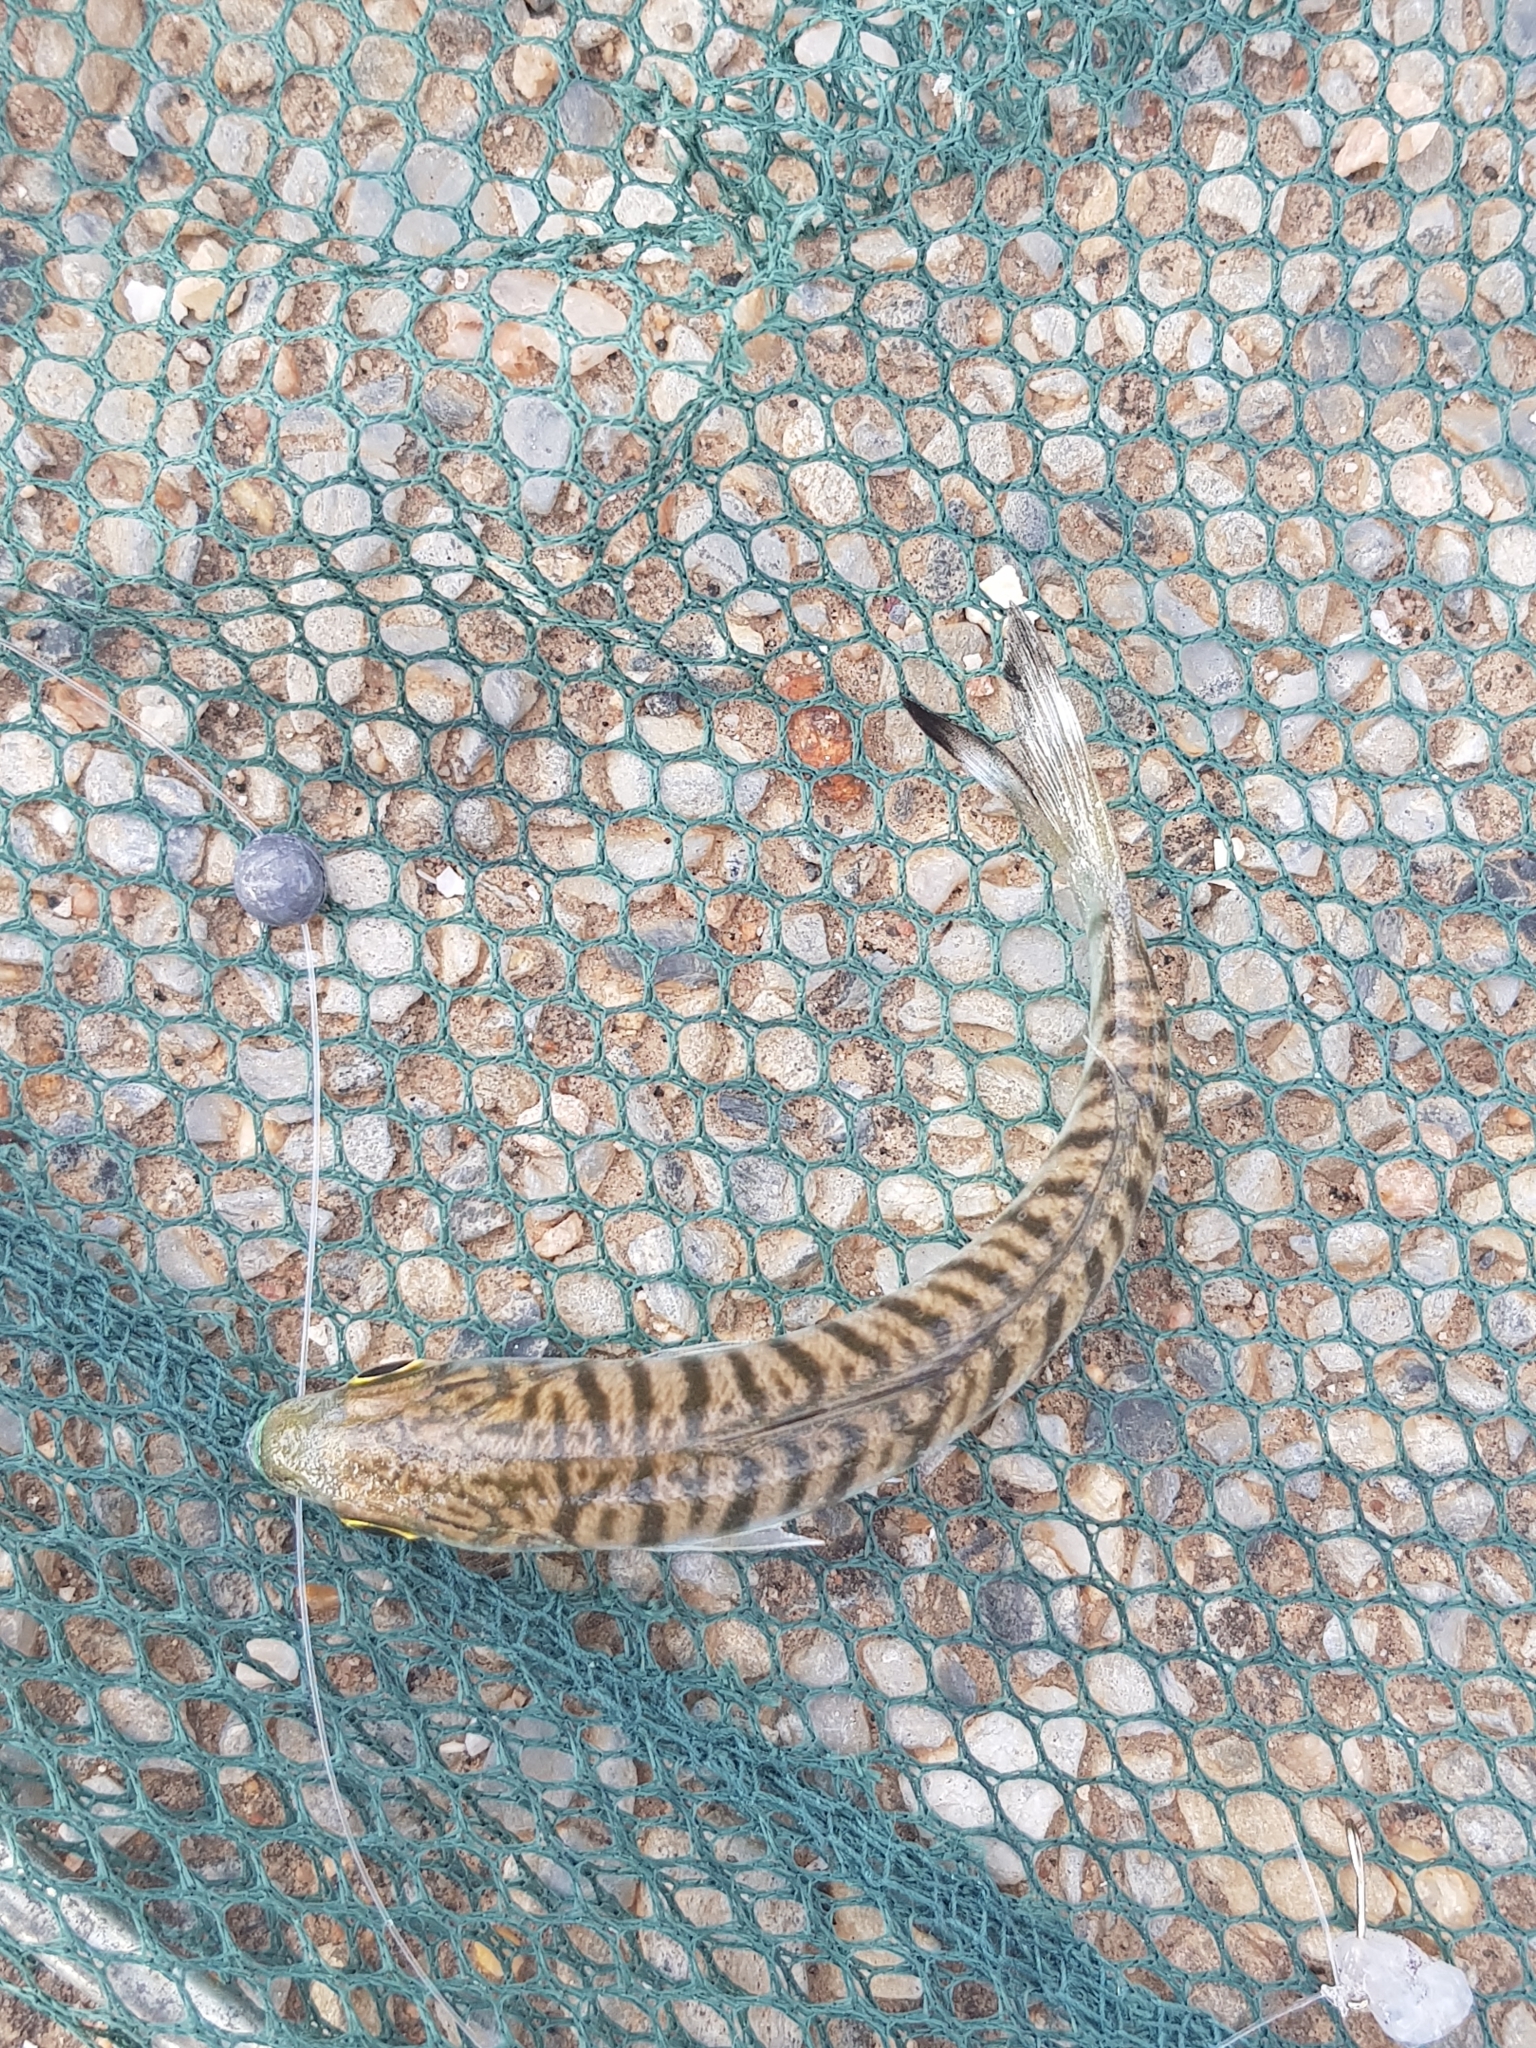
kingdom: Animalia
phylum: Chordata
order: Perciformes
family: Arripidae
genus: Arripis
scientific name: Arripis georgianus
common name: Australian herring
